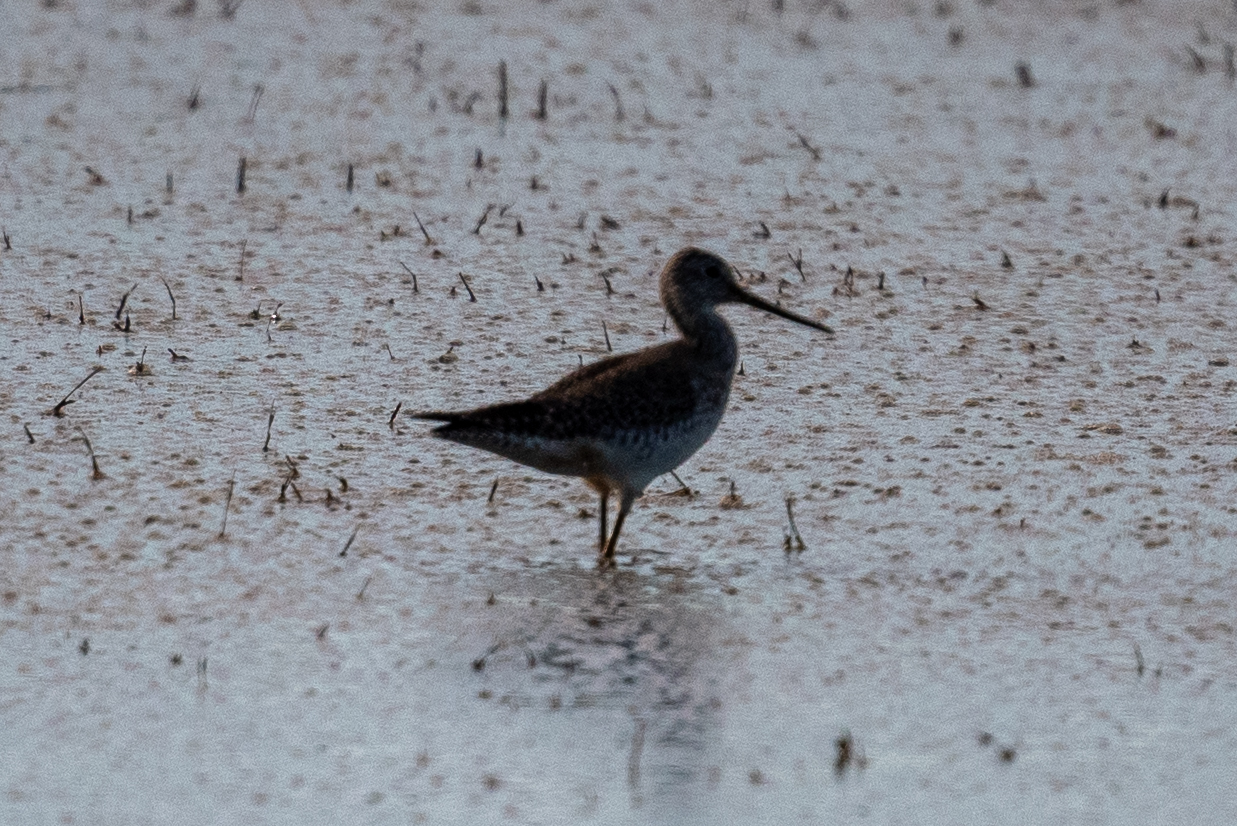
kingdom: Animalia
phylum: Chordata
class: Aves
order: Charadriiformes
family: Scolopacidae
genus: Tringa
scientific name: Tringa melanoleuca
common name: Greater yellowlegs
